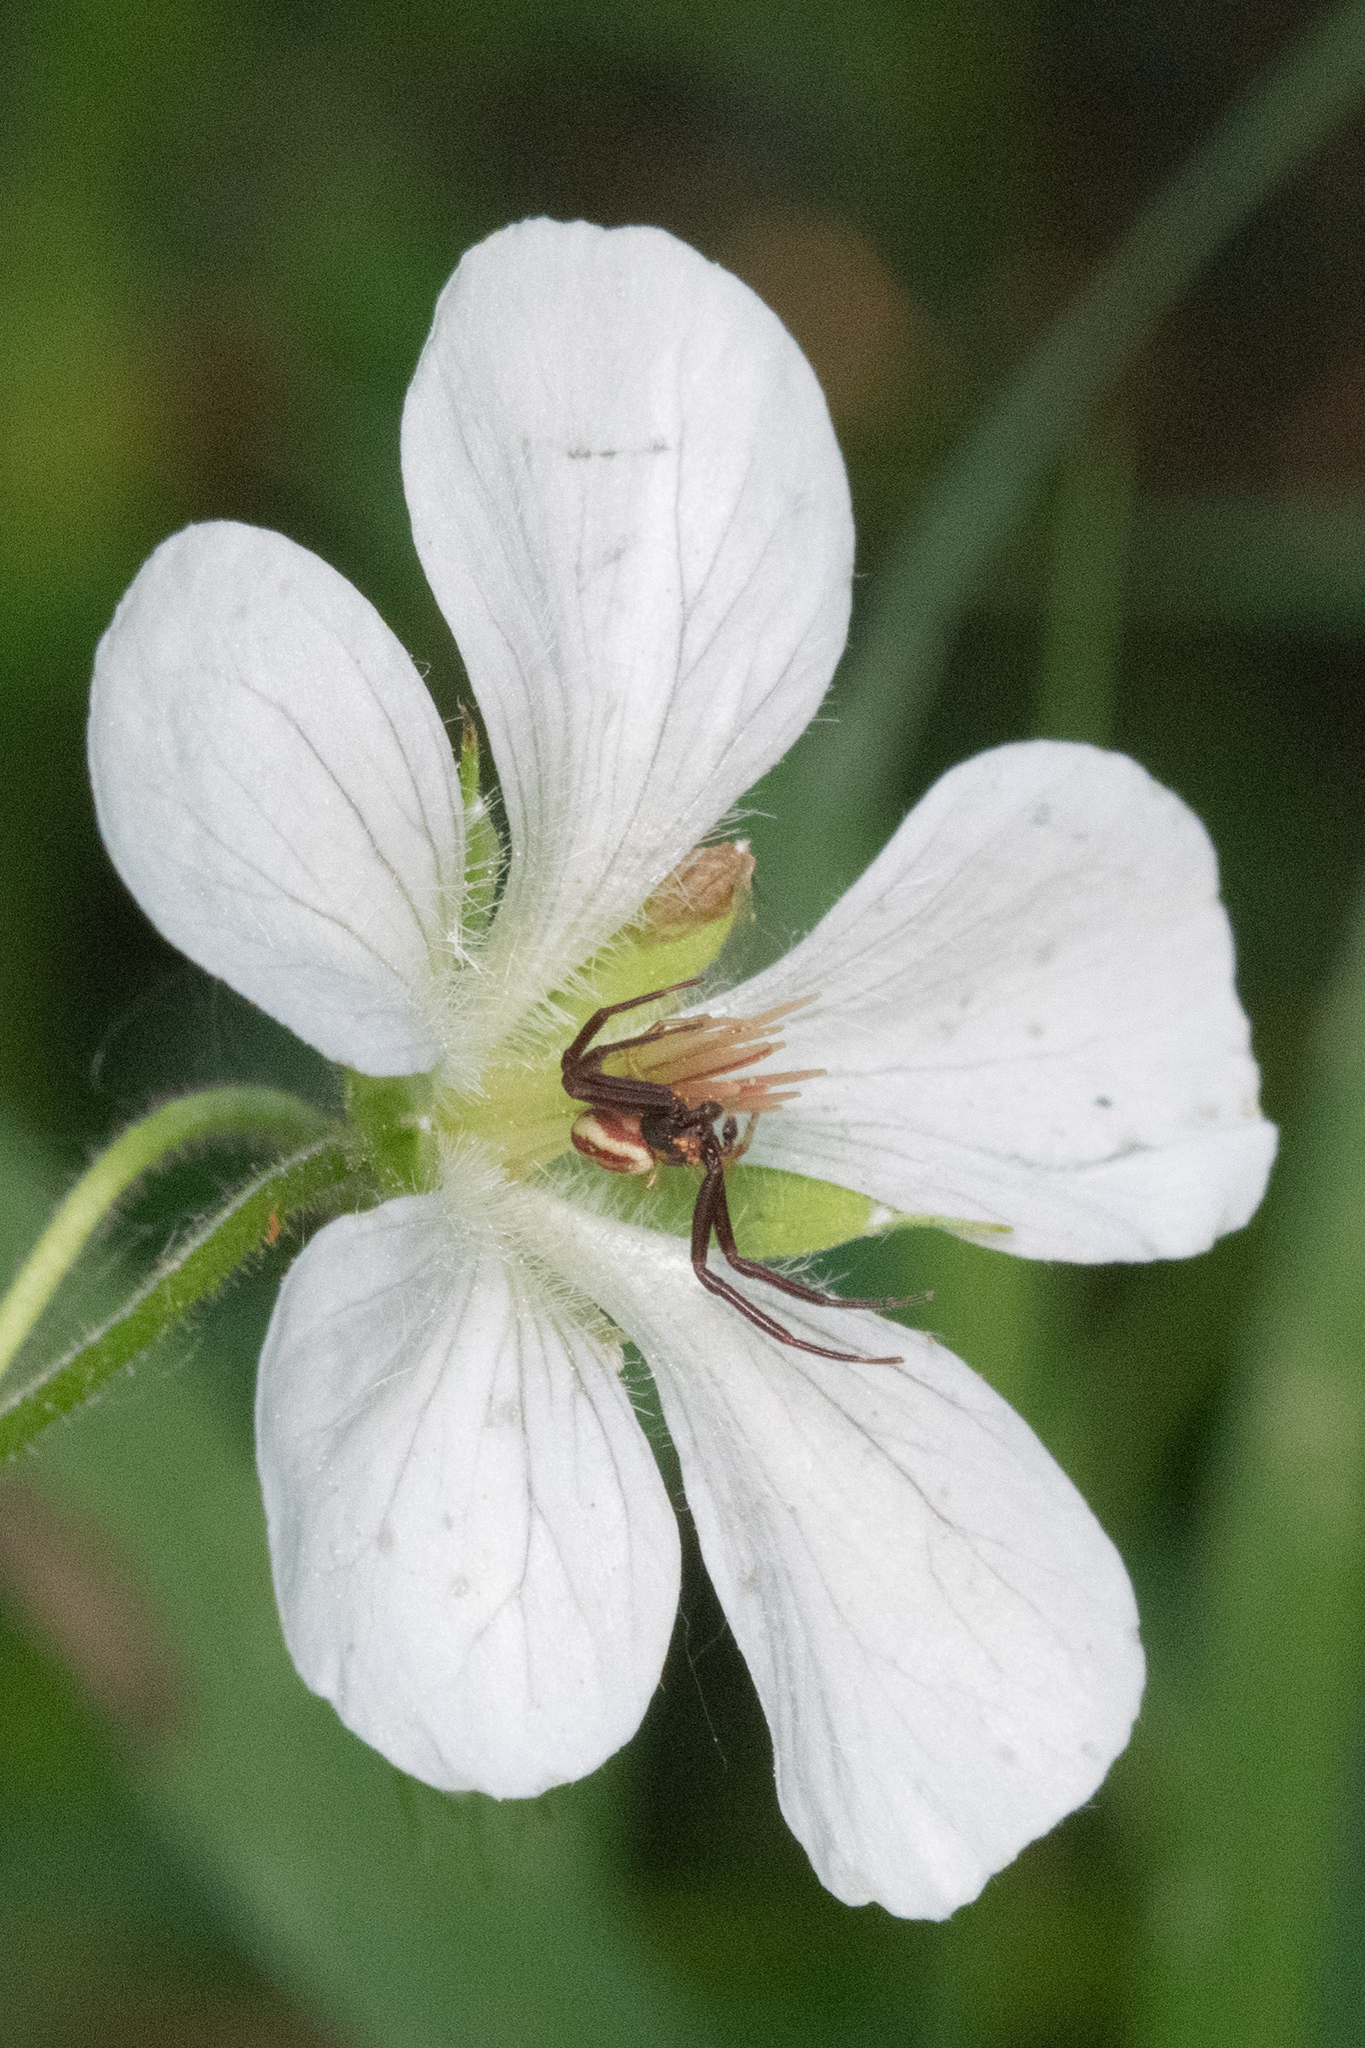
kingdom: Plantae
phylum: Tracheophyta
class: Magnoliopsida
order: Geraniales
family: Geraniaceae
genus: Geranium
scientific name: Geranium richardsonii
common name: Richardson's crane's-bill
